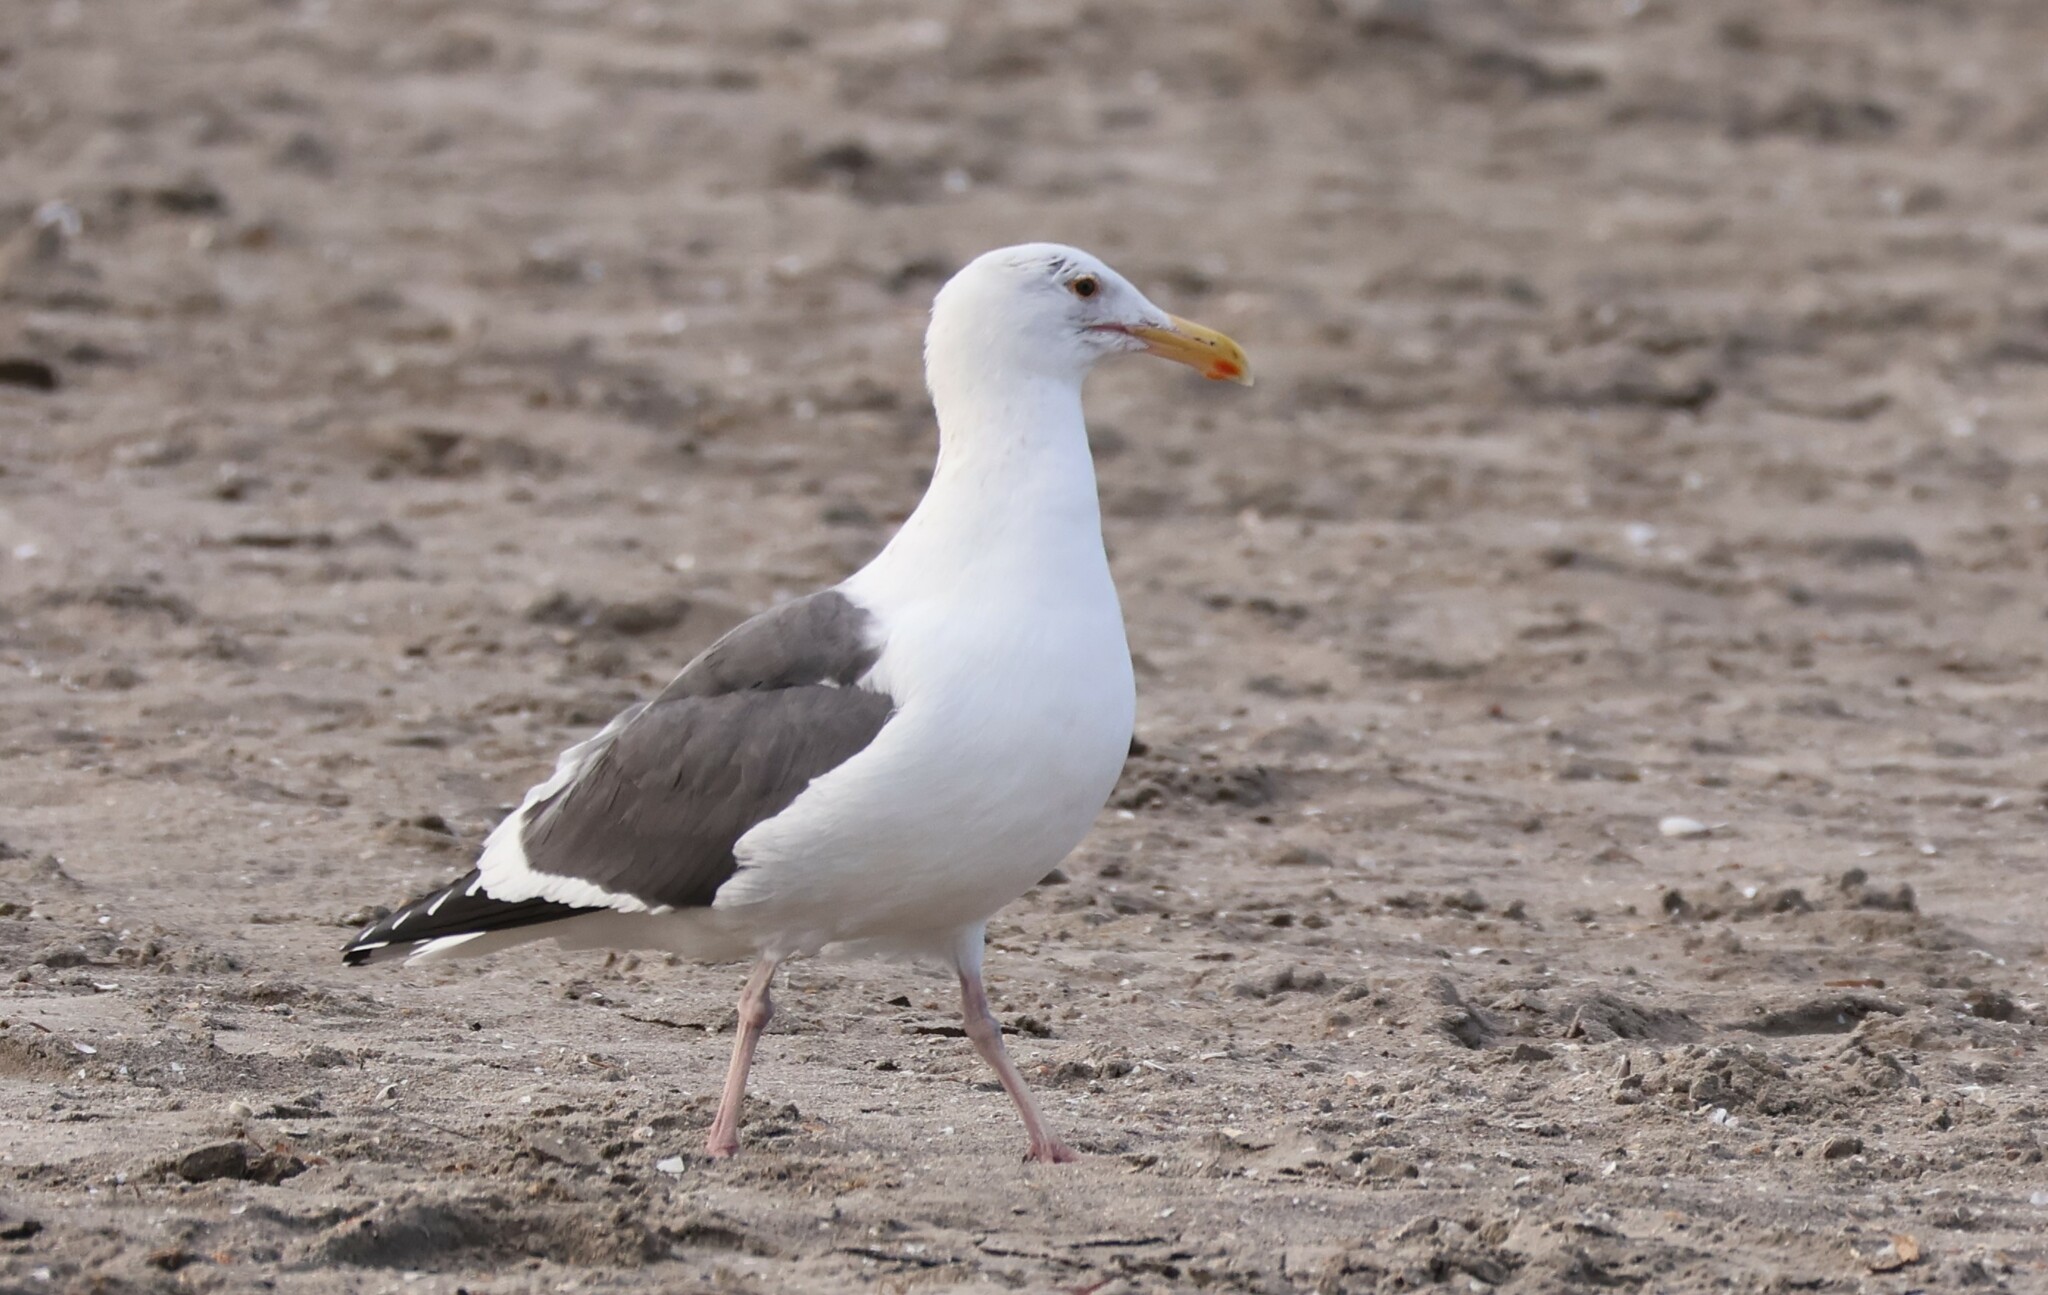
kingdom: Animalia
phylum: Chordata
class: Aves
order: Charadriiformes
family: Laridae
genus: Larus
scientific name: Larus occidentalis
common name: Western gull
